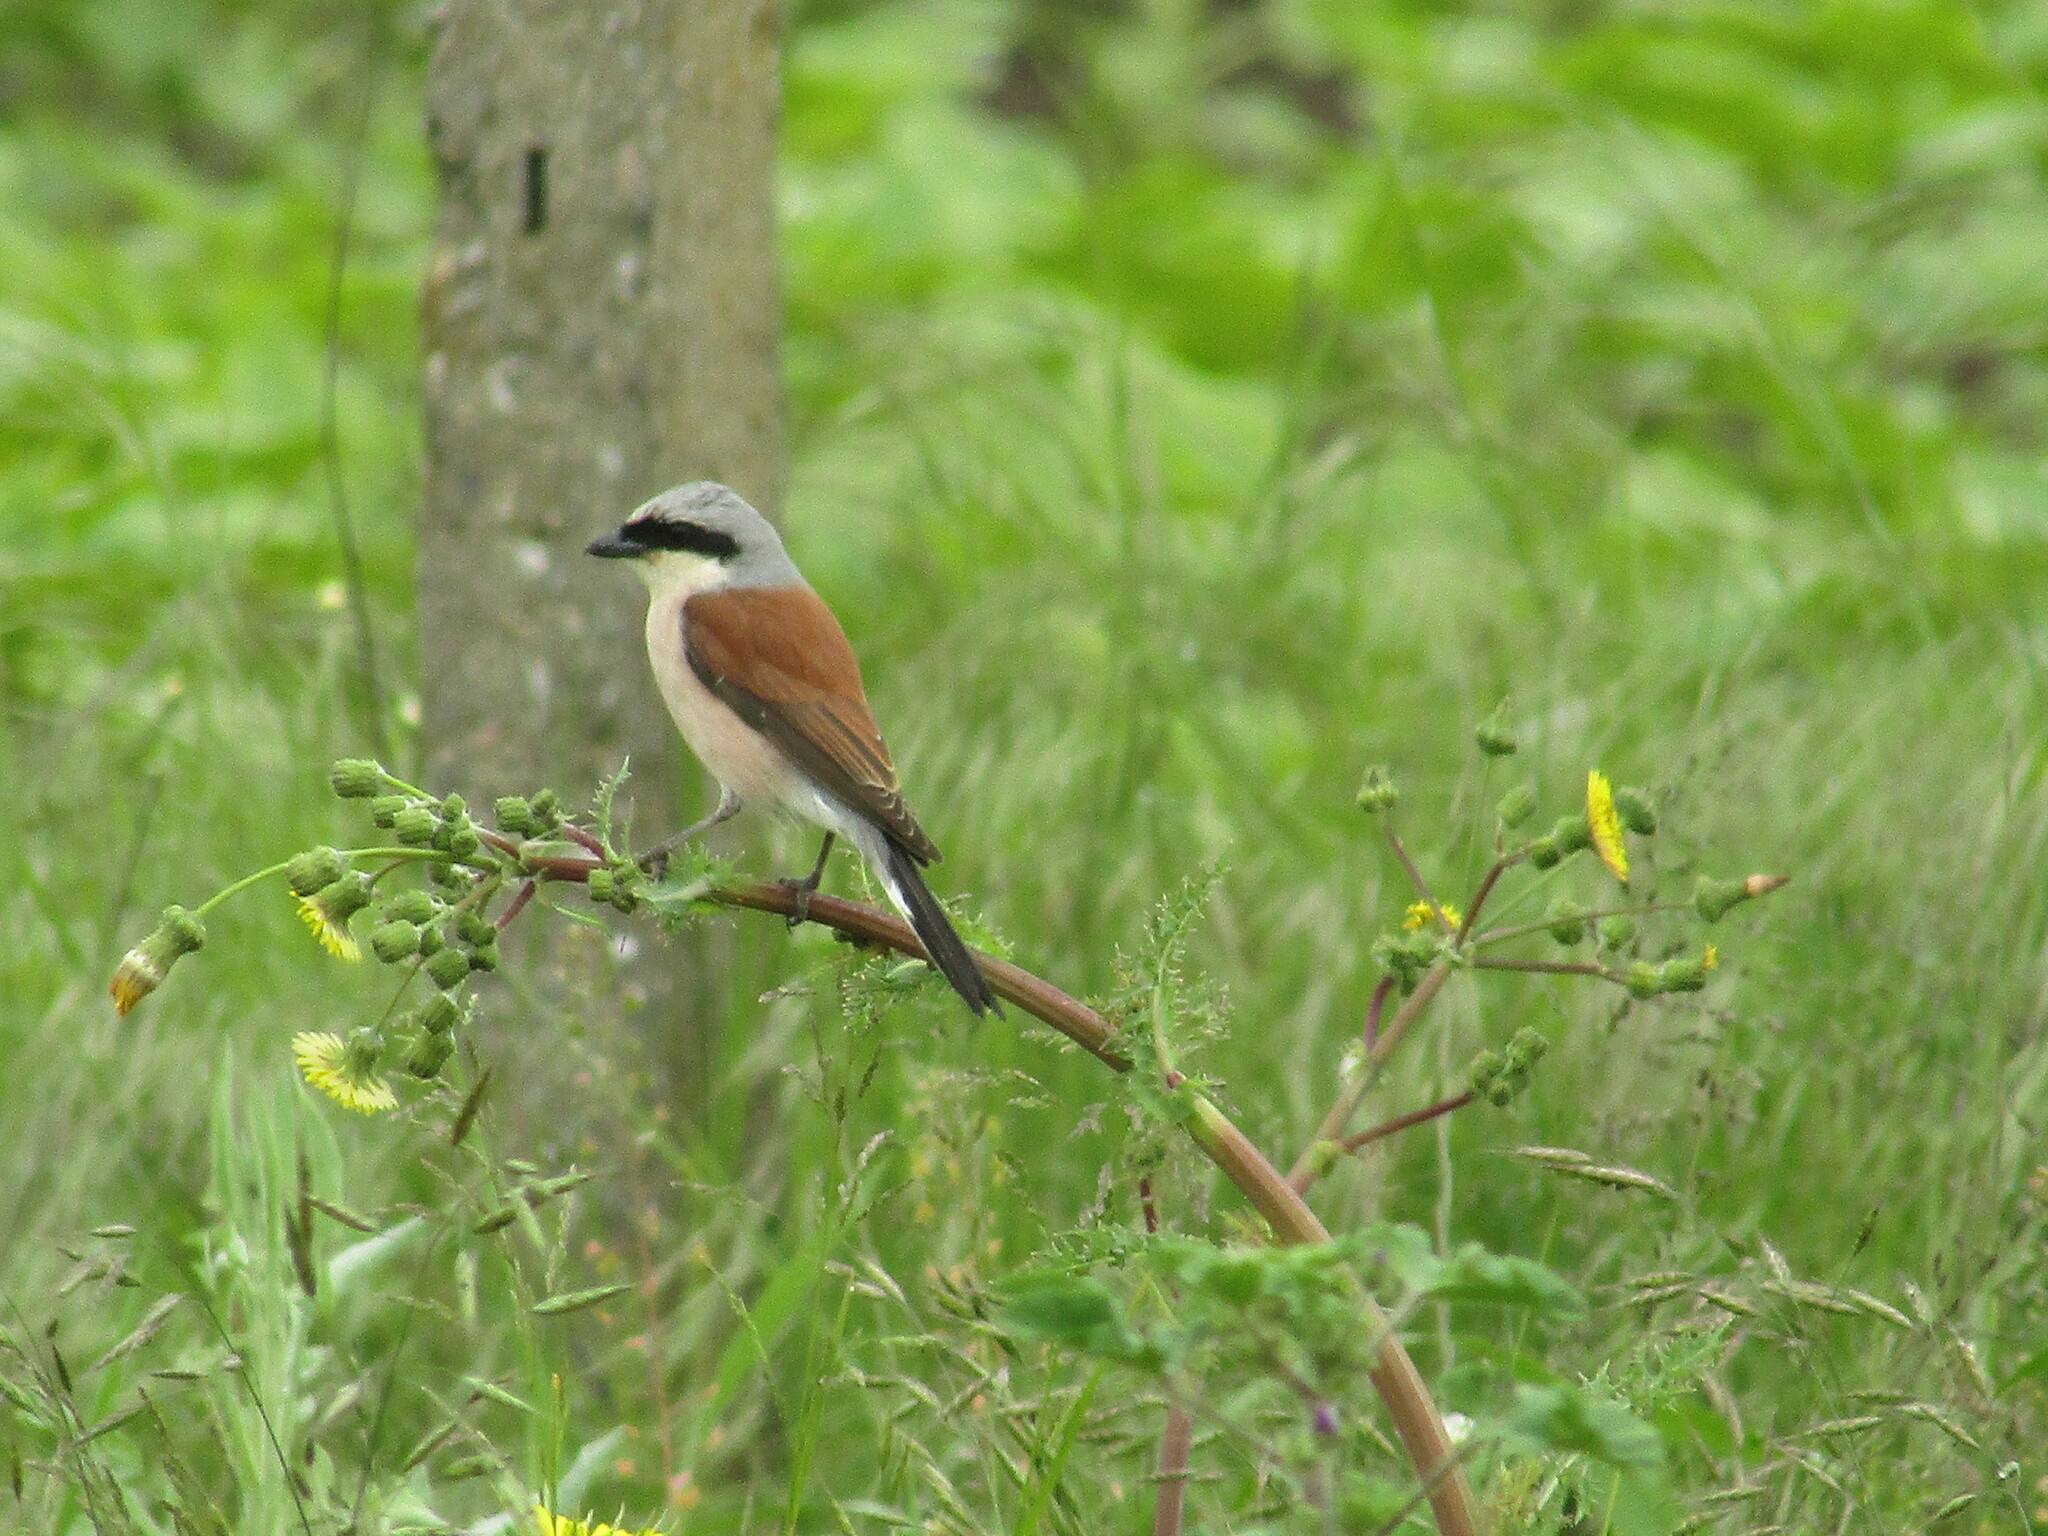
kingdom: Animalia
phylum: Chordata
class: Aves
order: Passeriformes
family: Laniidae
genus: Lanius
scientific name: Lanius collurio
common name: Red-backed shrike
